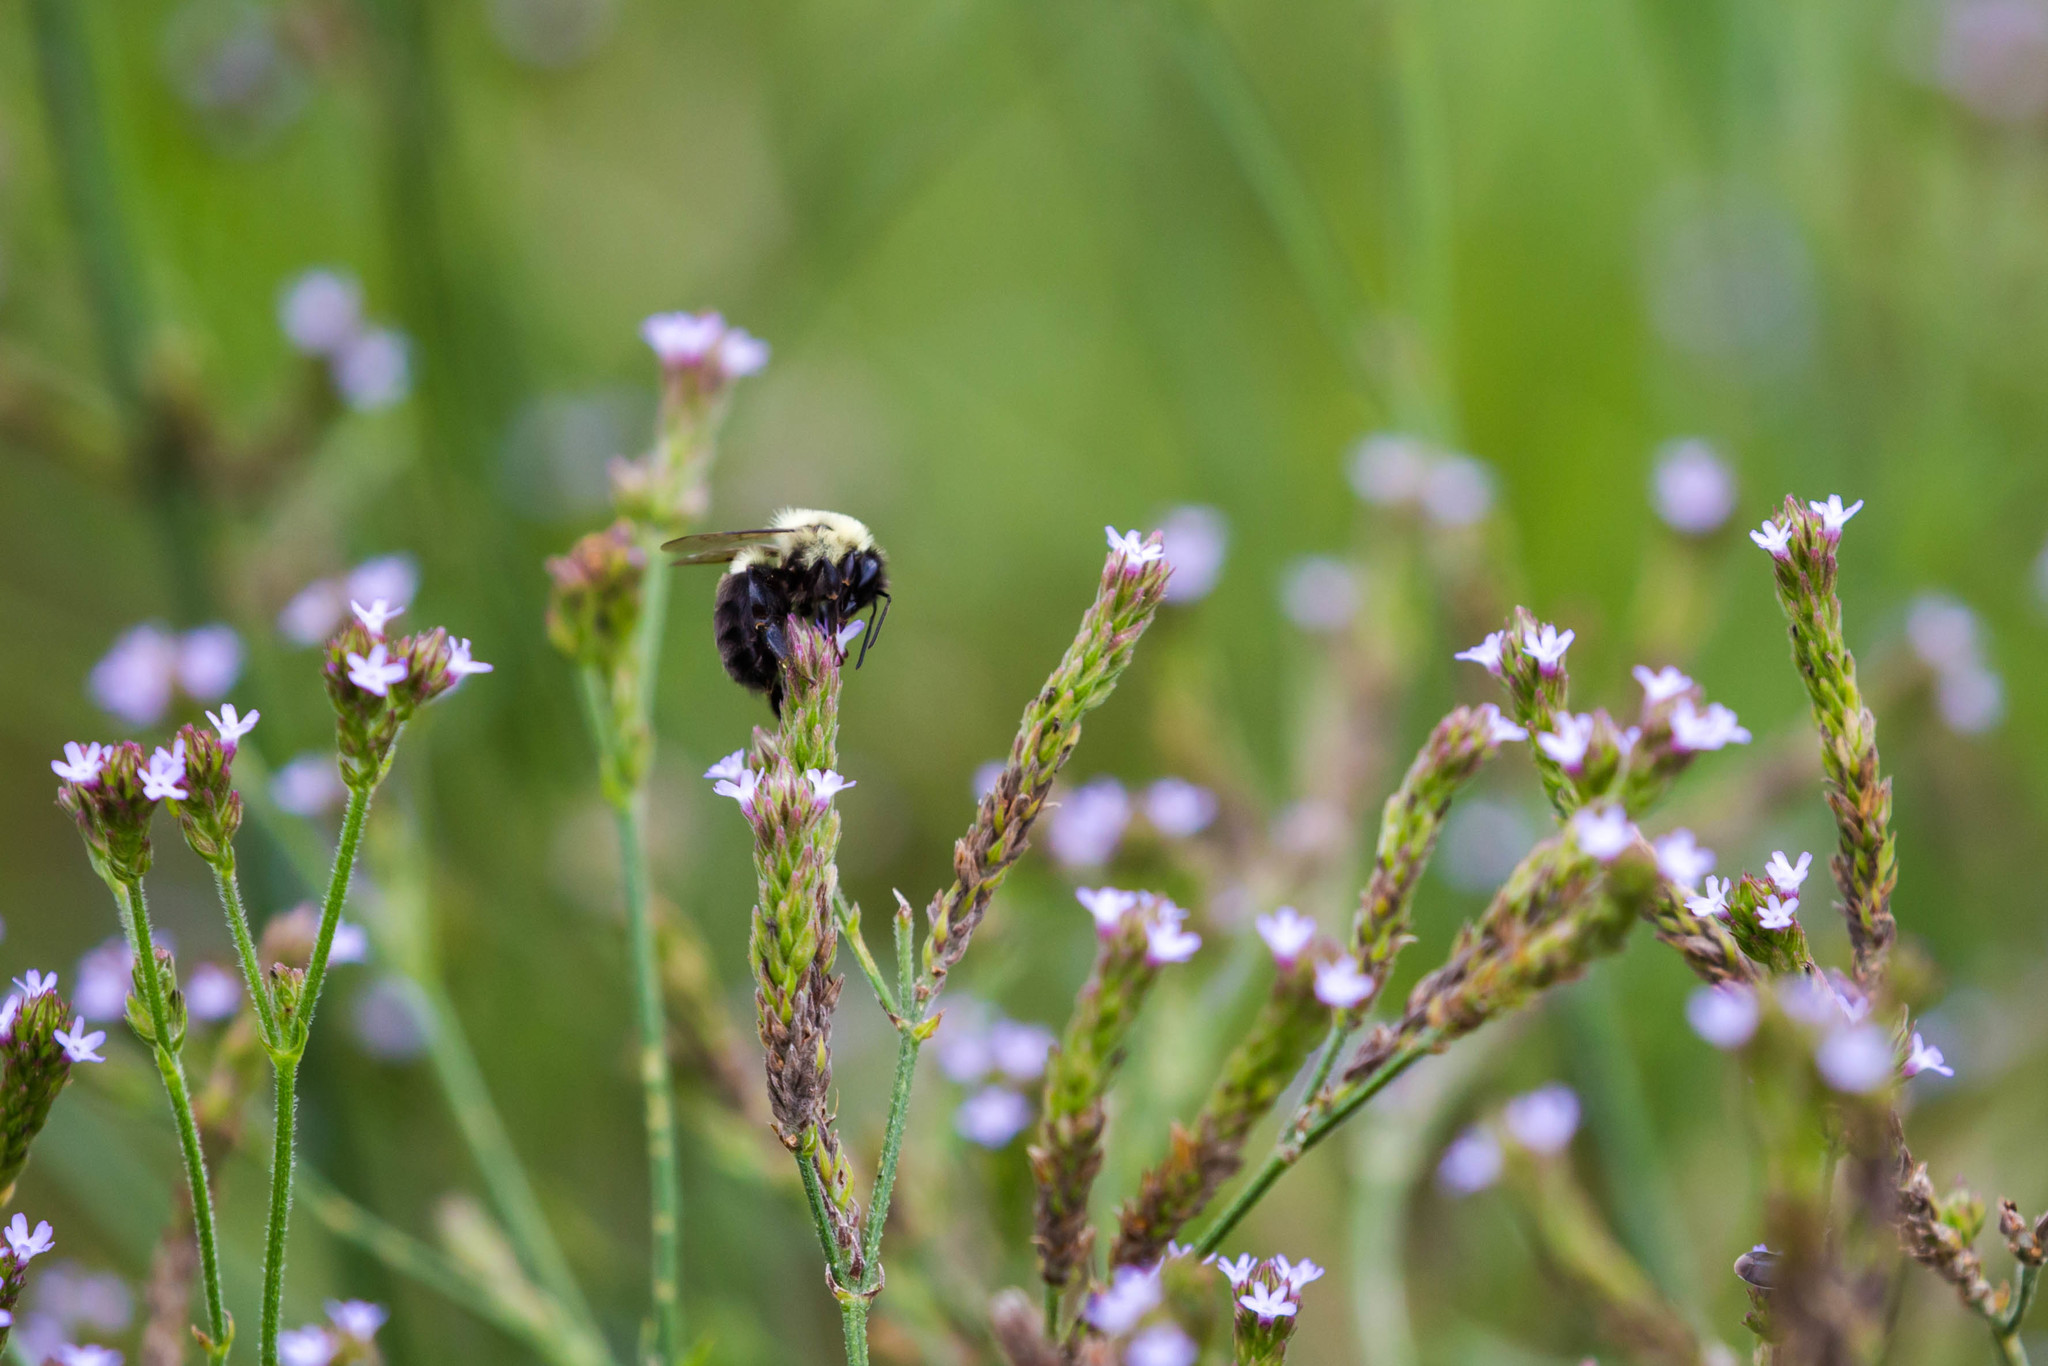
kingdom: Animalia
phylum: Arthropoda
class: Insecta
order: Hymenoptera
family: Apidae
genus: Bombus
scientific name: Bombus impatiens
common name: Common eastern bumble bee
